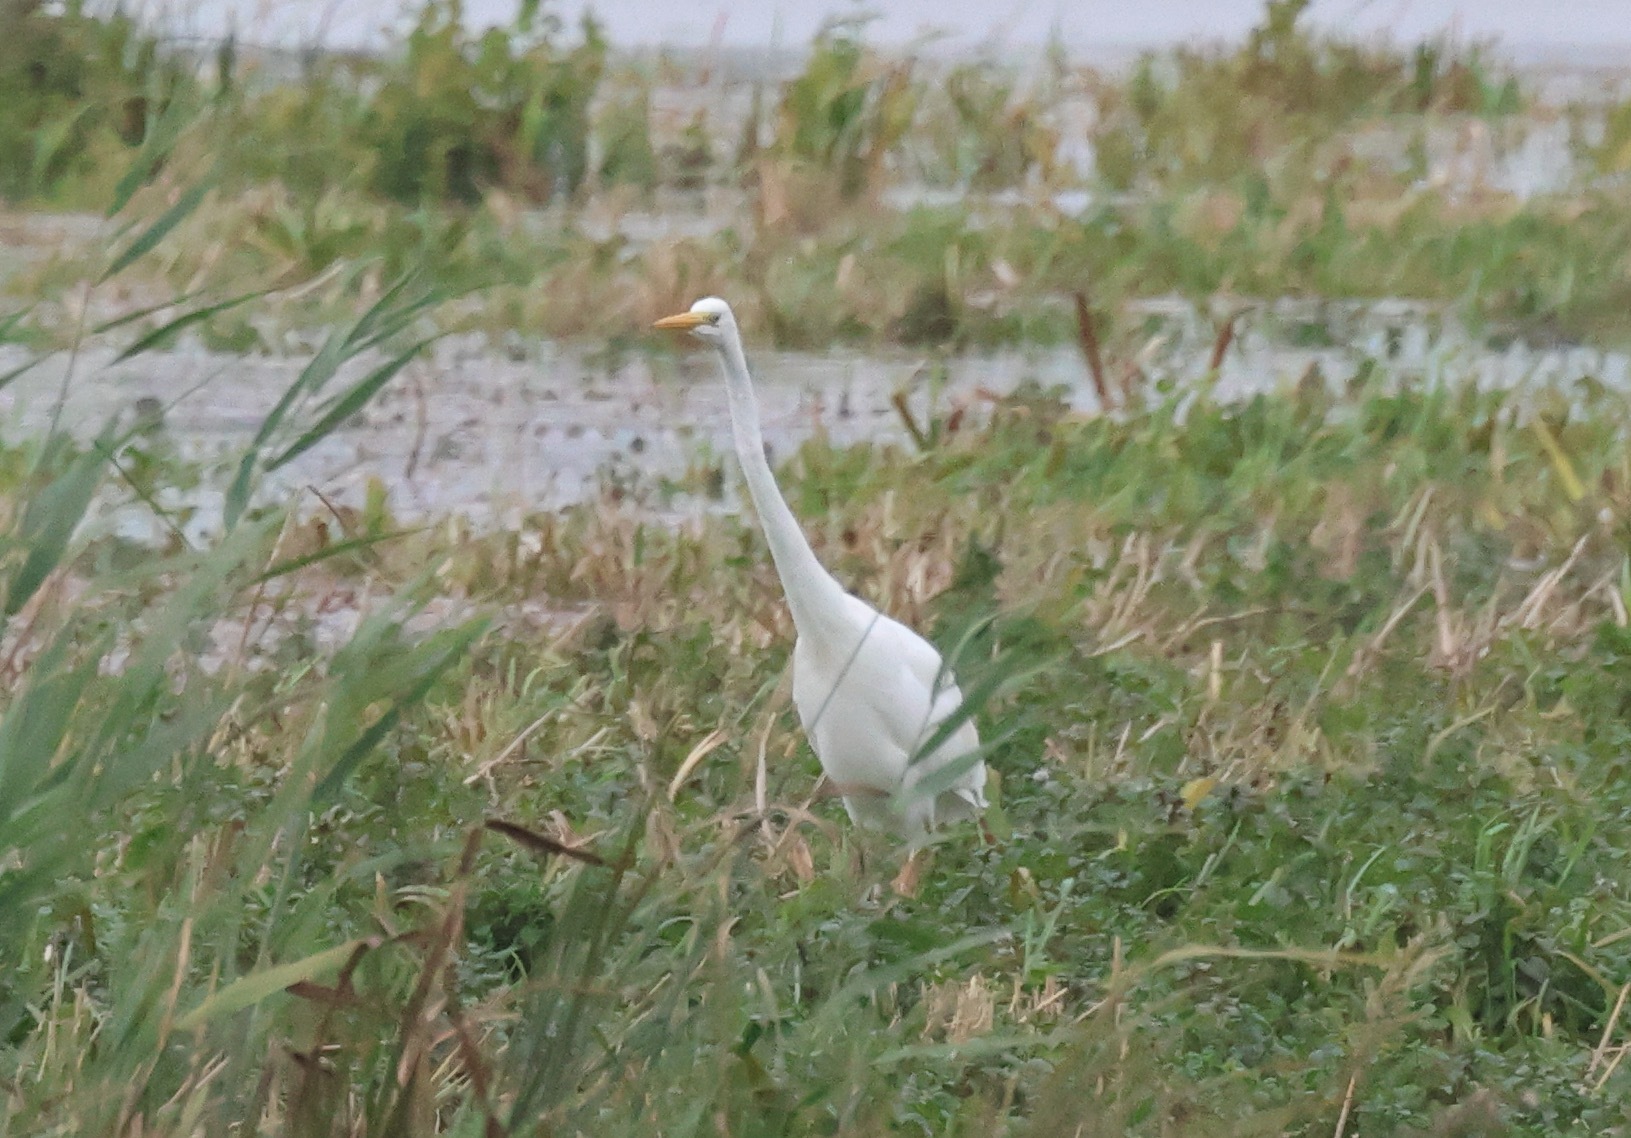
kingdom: Animalia
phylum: Chordata
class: Aves
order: Pelecaniformes
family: Ardeidae
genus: Ardea
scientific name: Ardea alba
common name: Great egret
